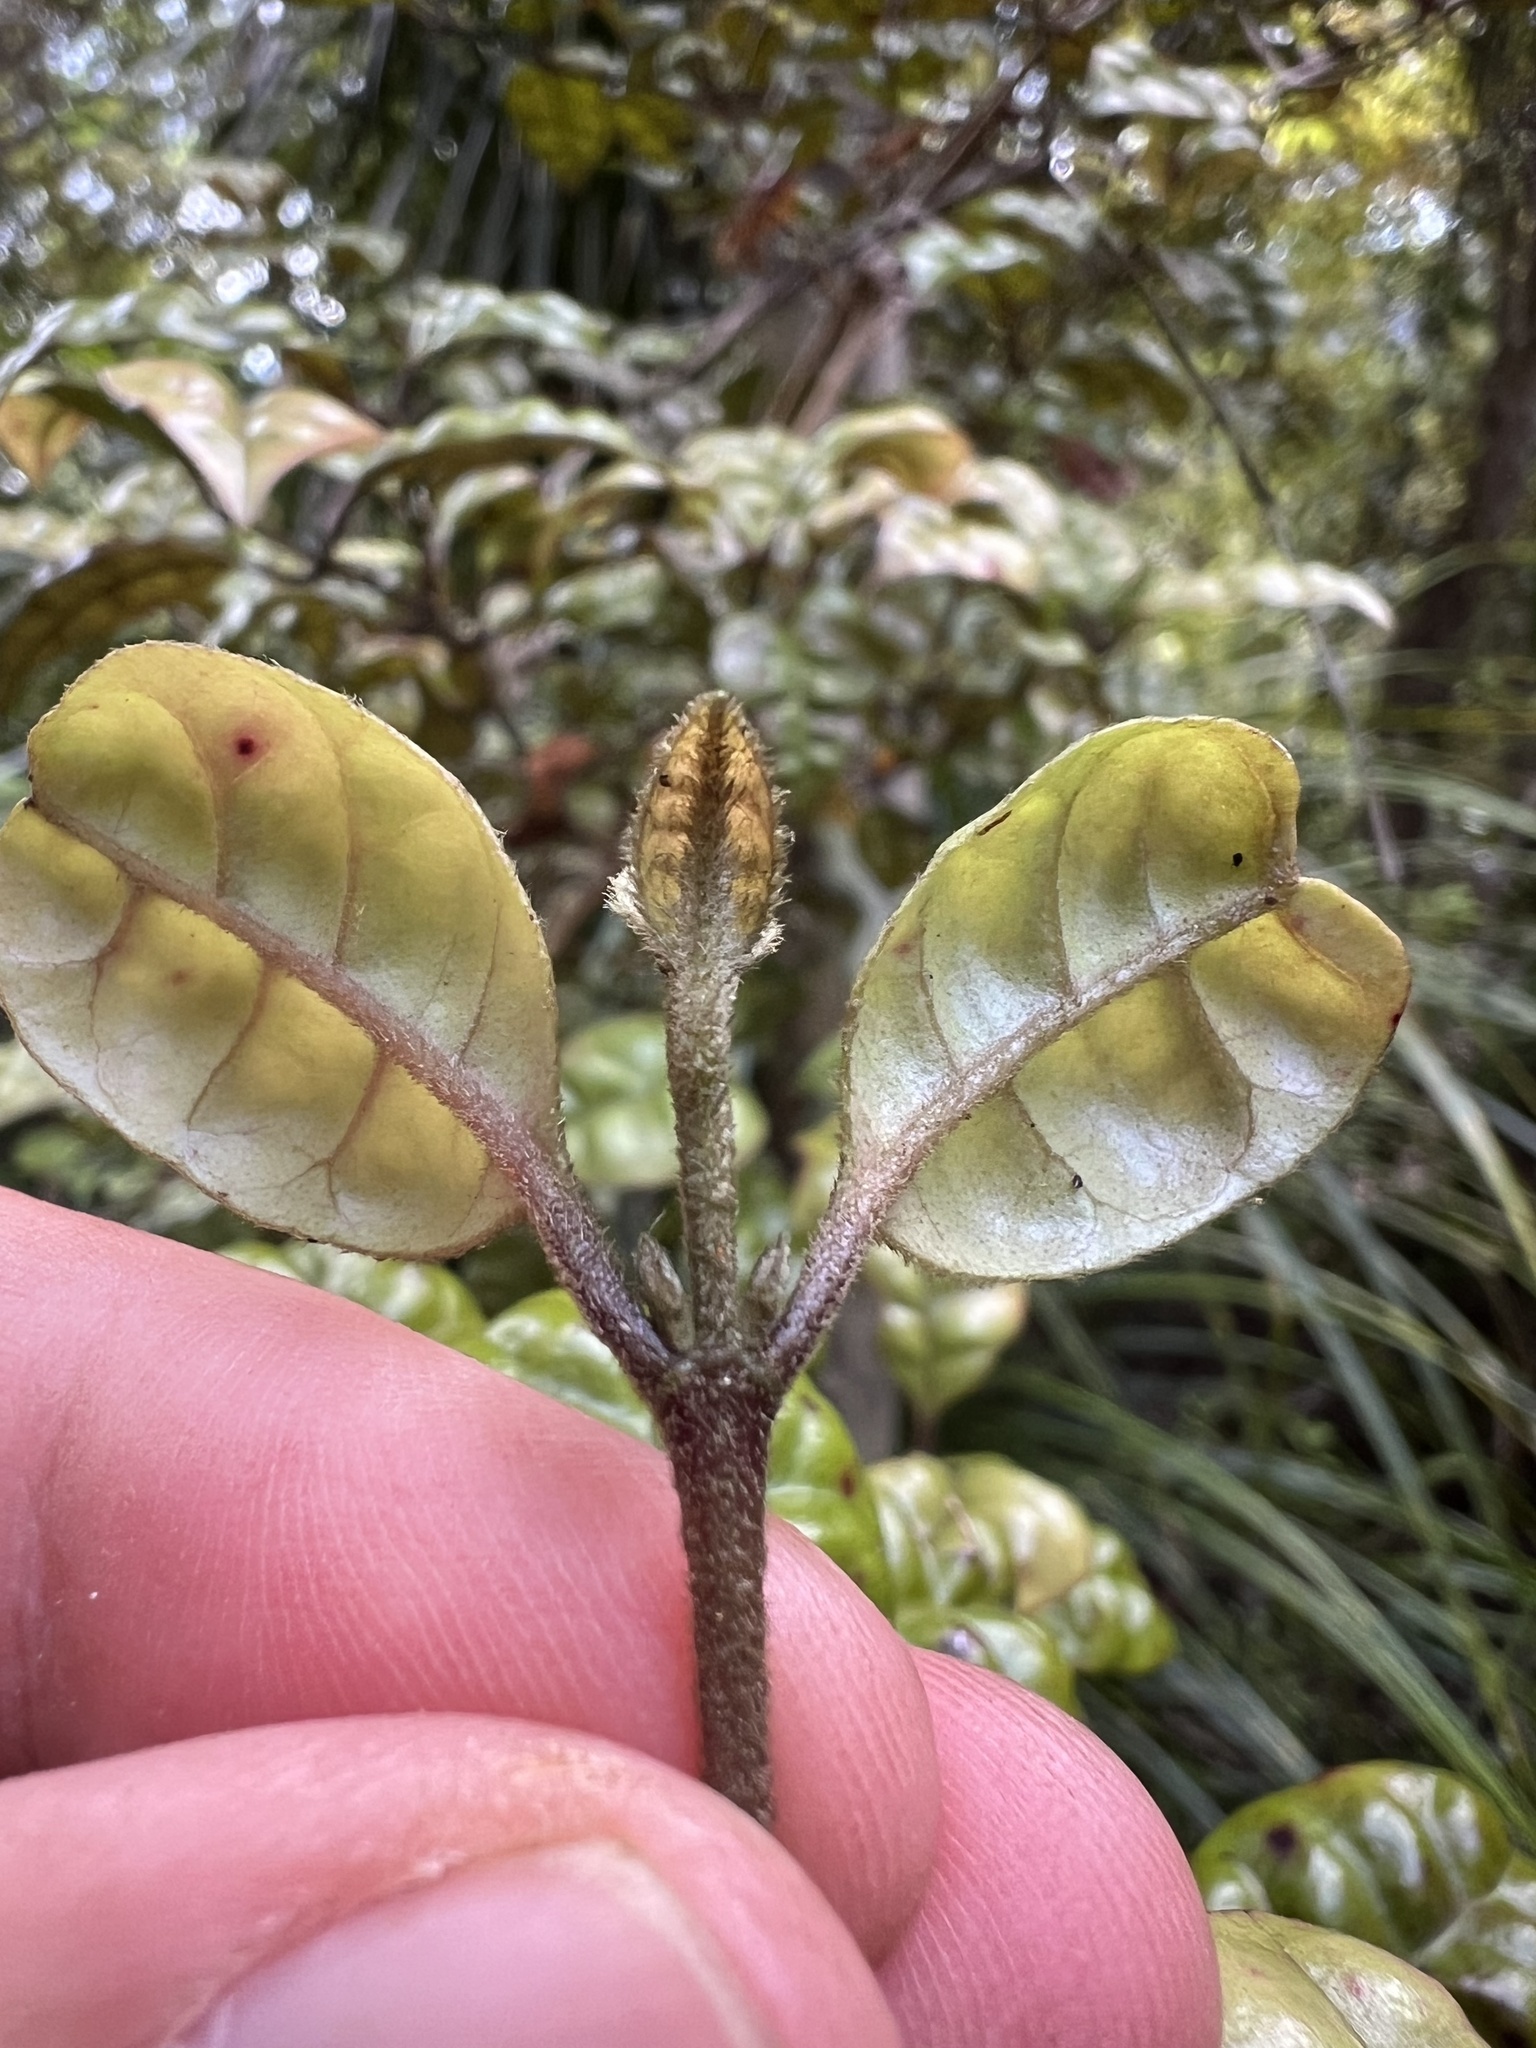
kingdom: Plantae
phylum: Tracheophyta
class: Magnoliopsida
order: Myrtales
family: Myrtaceae
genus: Lophomyrtus
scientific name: Lophomyrtus bullata
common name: Rama rama
